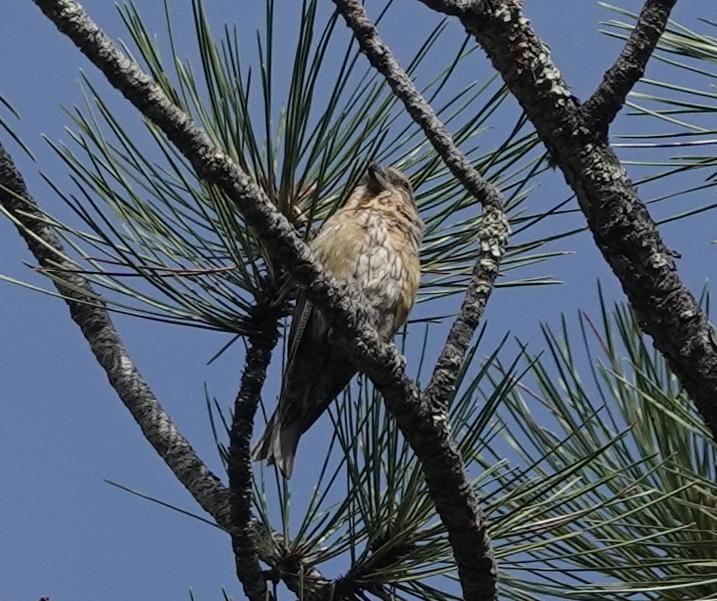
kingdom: Animalia
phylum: Chordata
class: Aves
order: Passeriformes
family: Fringillidae
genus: Loxia
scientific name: Loxia curvirostra
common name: Red crossbill
